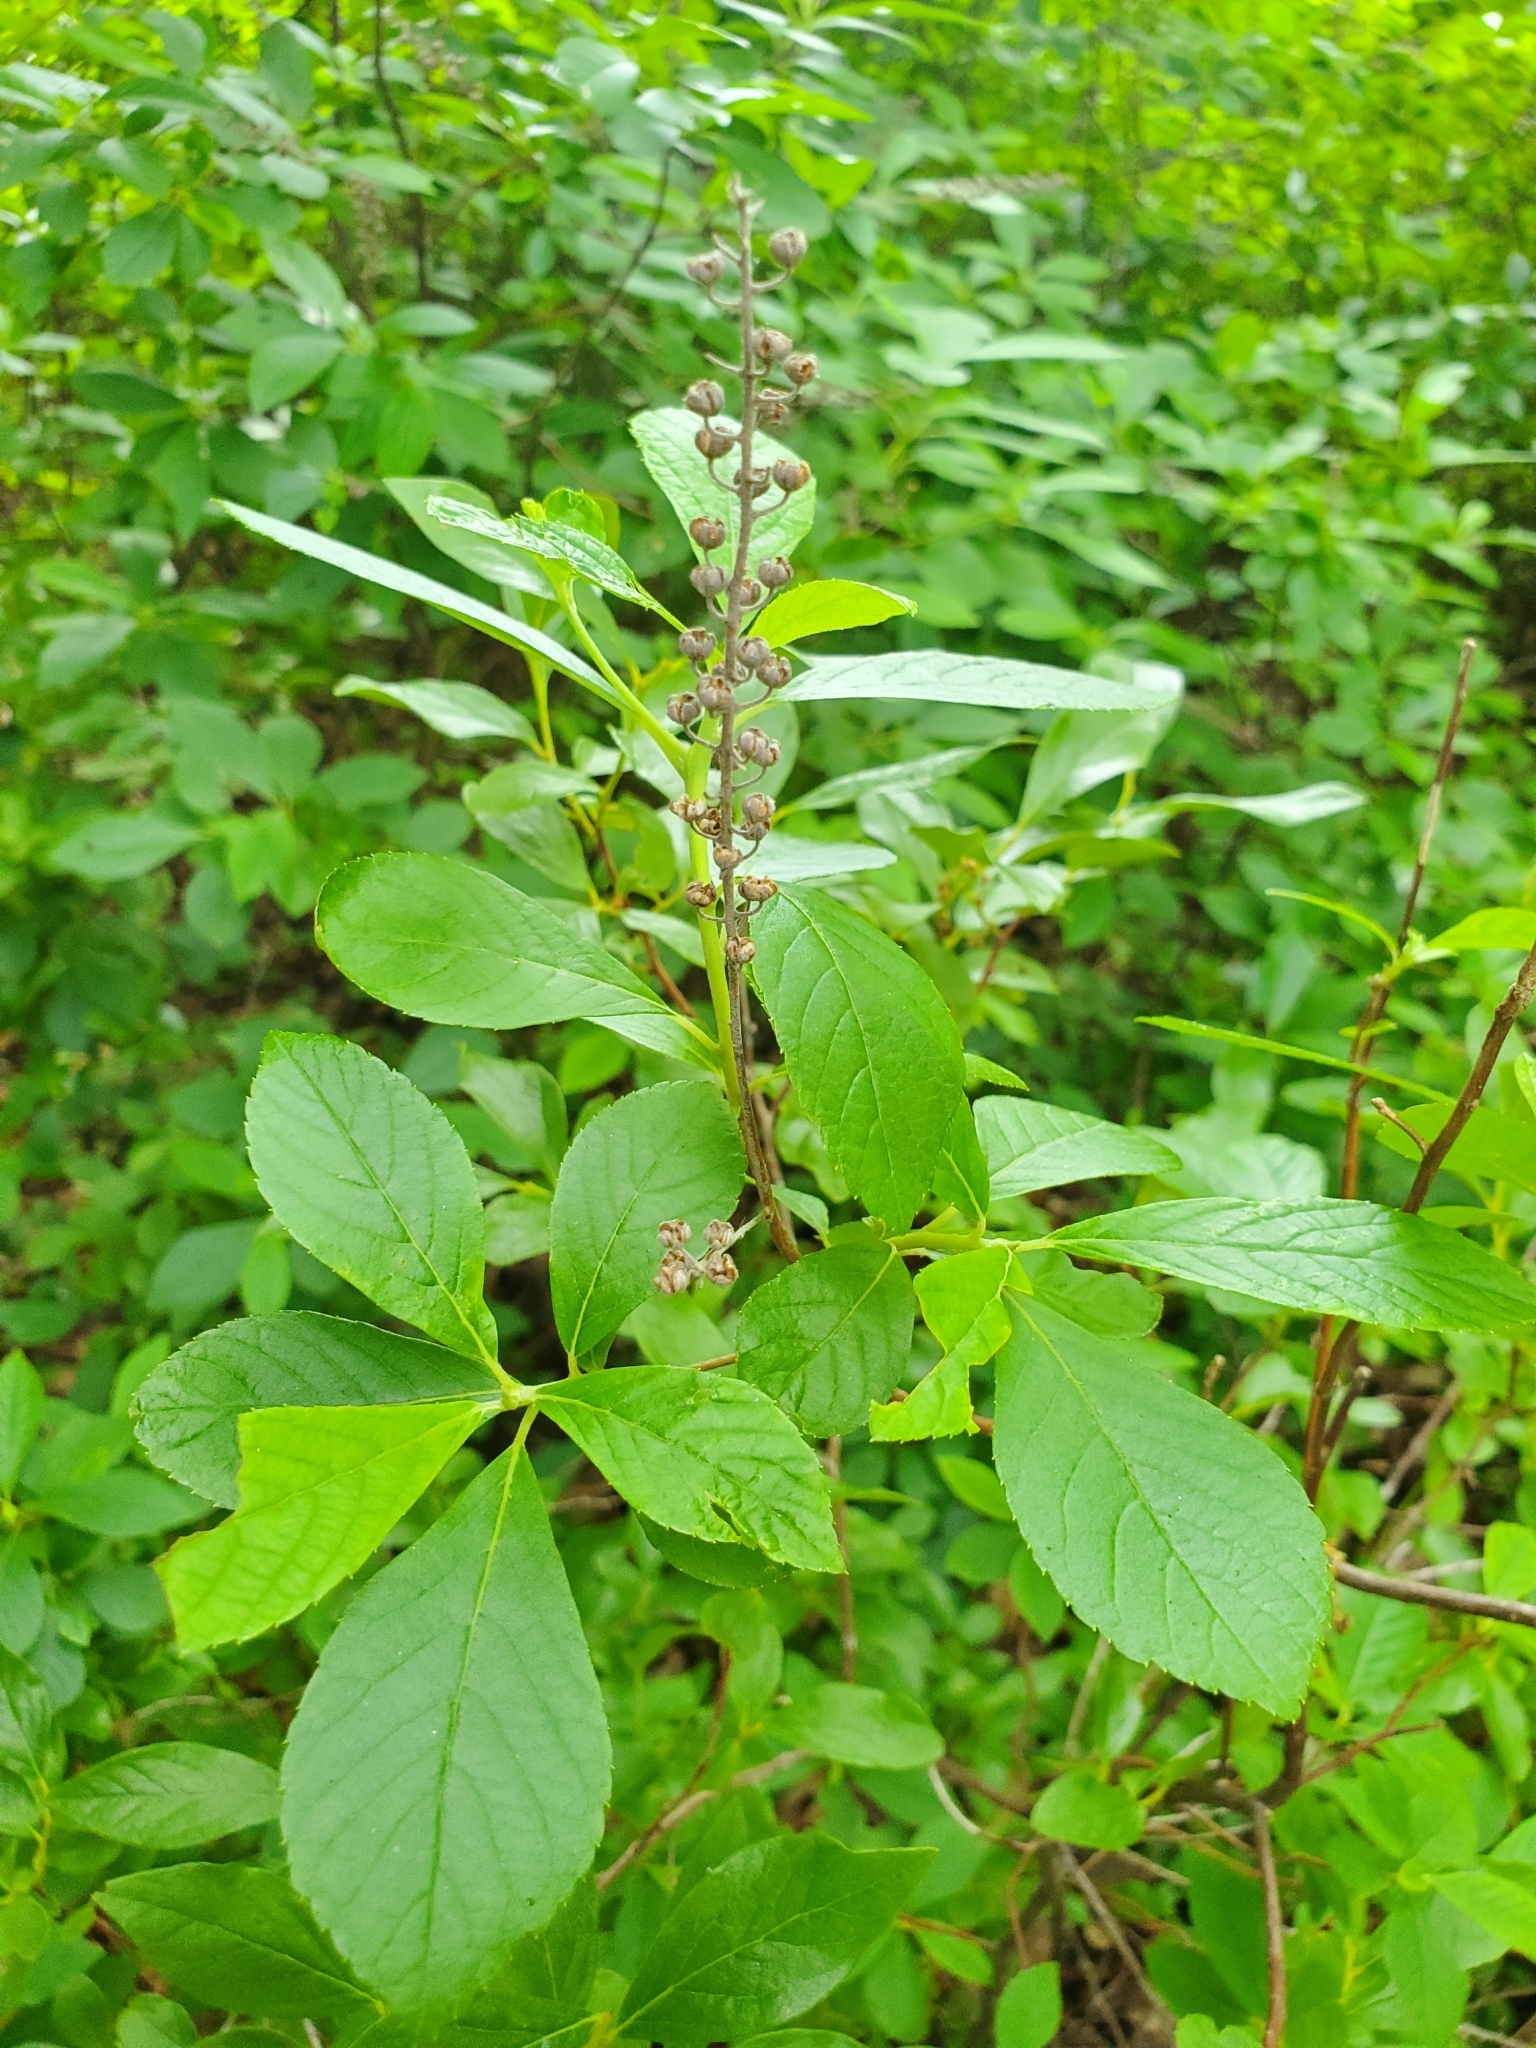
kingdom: Plantae
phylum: Tracheophyta
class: Magnoliopsida
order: Ericales
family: Clethraceae
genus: Clethra
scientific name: Clethra alnifolia
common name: Sweet pepperbush
